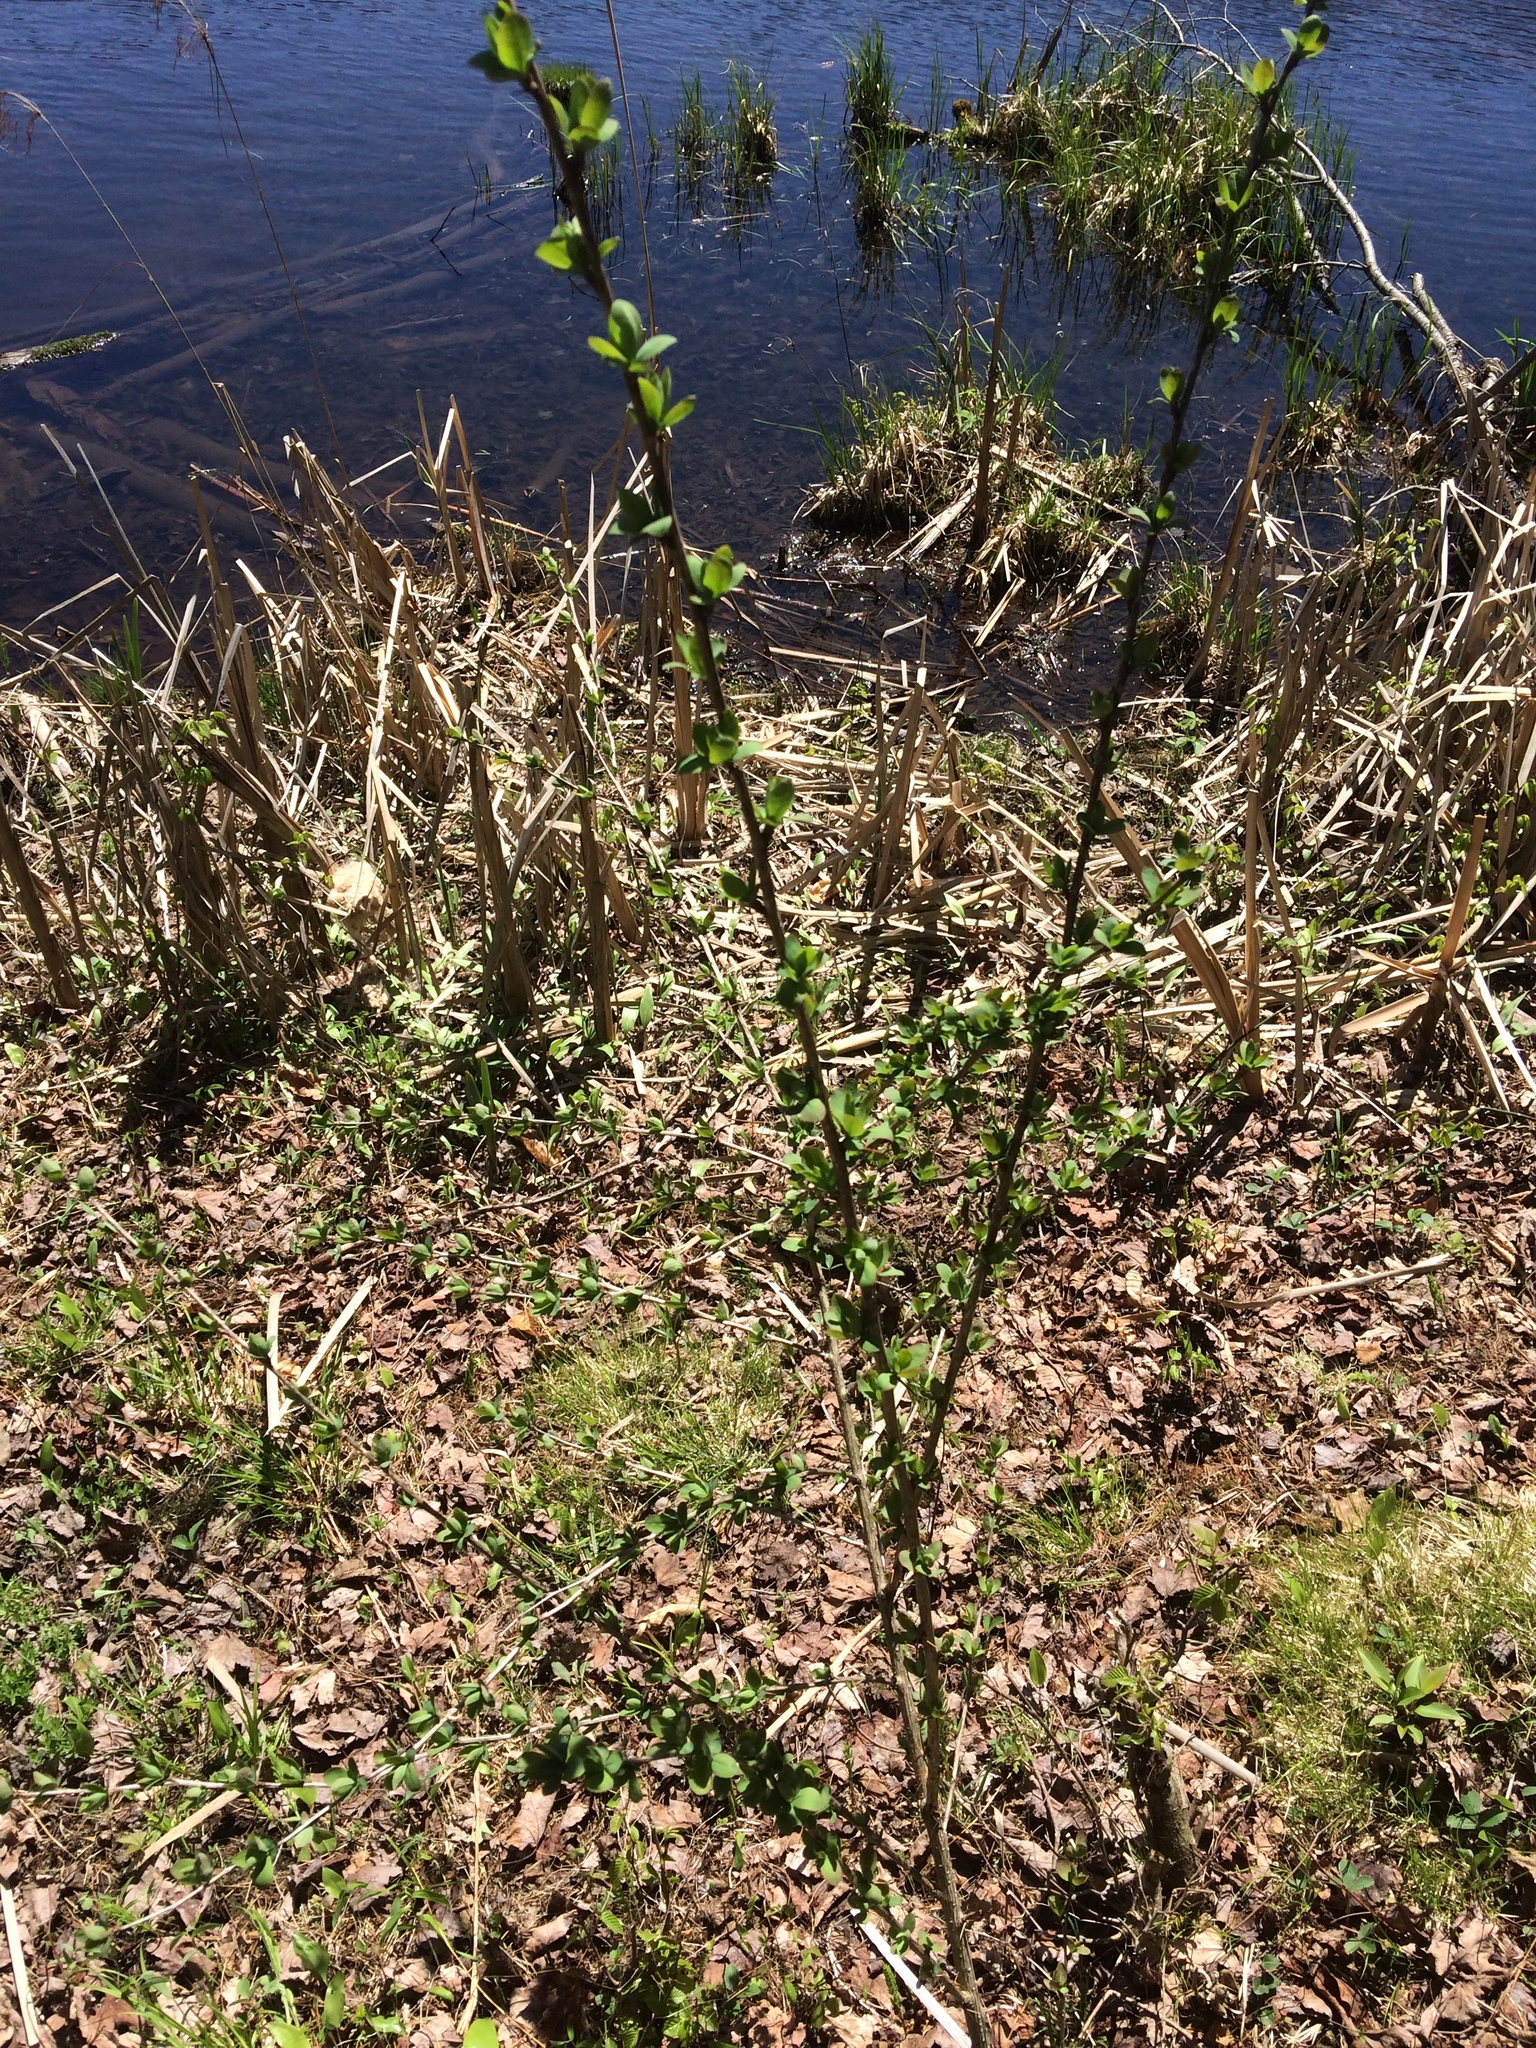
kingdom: Plantae
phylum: Tracheophyta
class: Magnoliopsida
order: Ranunculales
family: Berberidaceae
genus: Berberis
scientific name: Berberis thunbergii
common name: Japanese barberry
